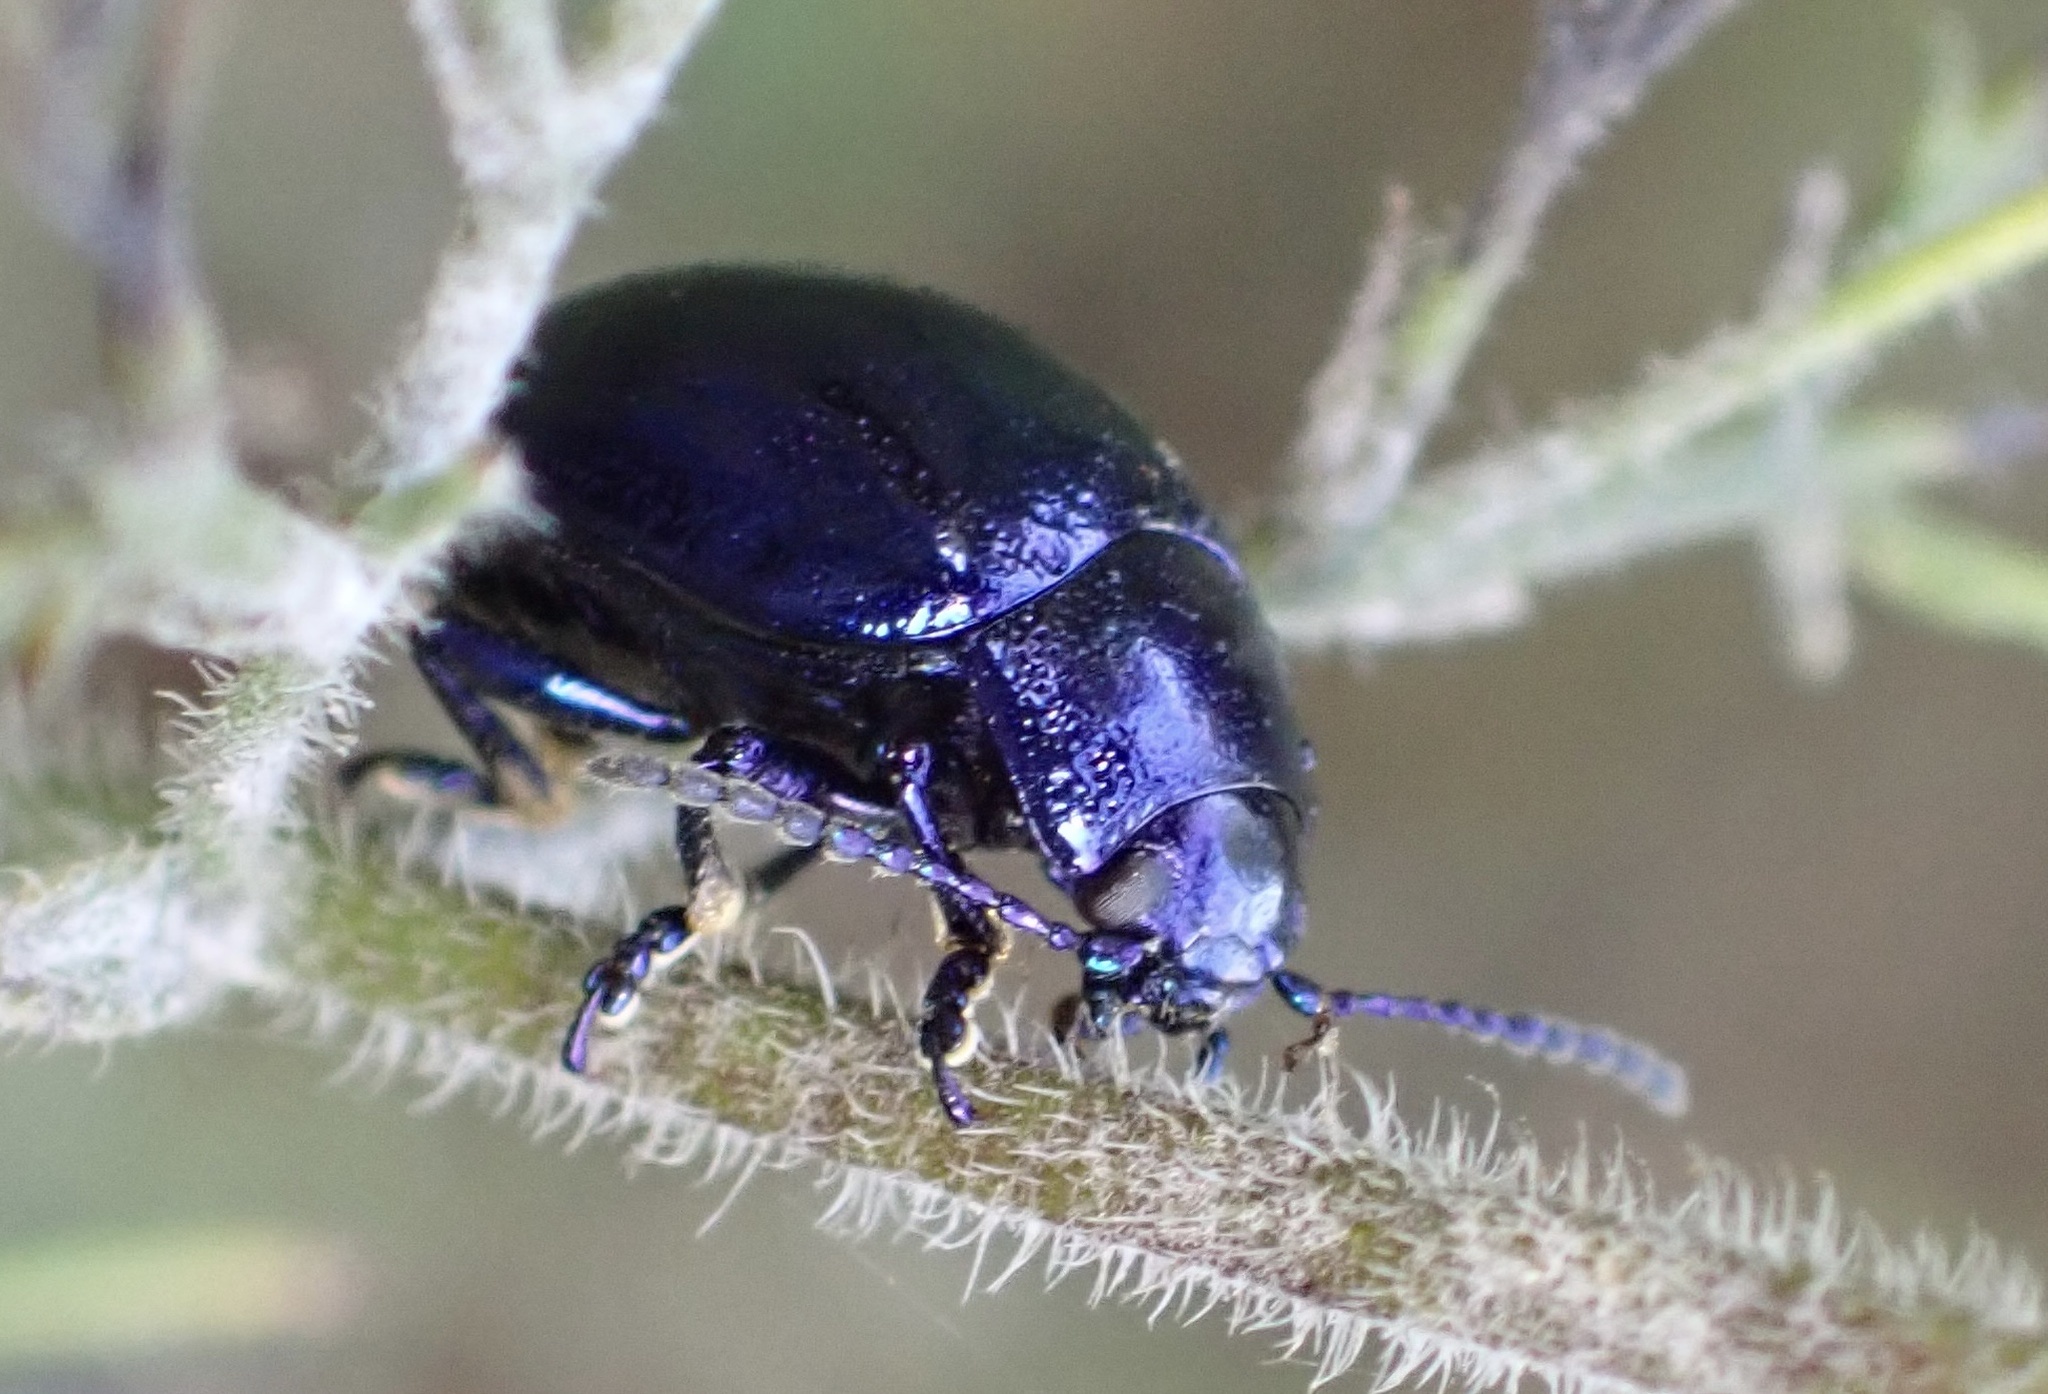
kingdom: Animalia
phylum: Arthropoda
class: Insecta
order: Coleoptera
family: Chrysomelidae
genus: Chrysolina
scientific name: Chrysolina coerulans
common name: Blue mint beetle
